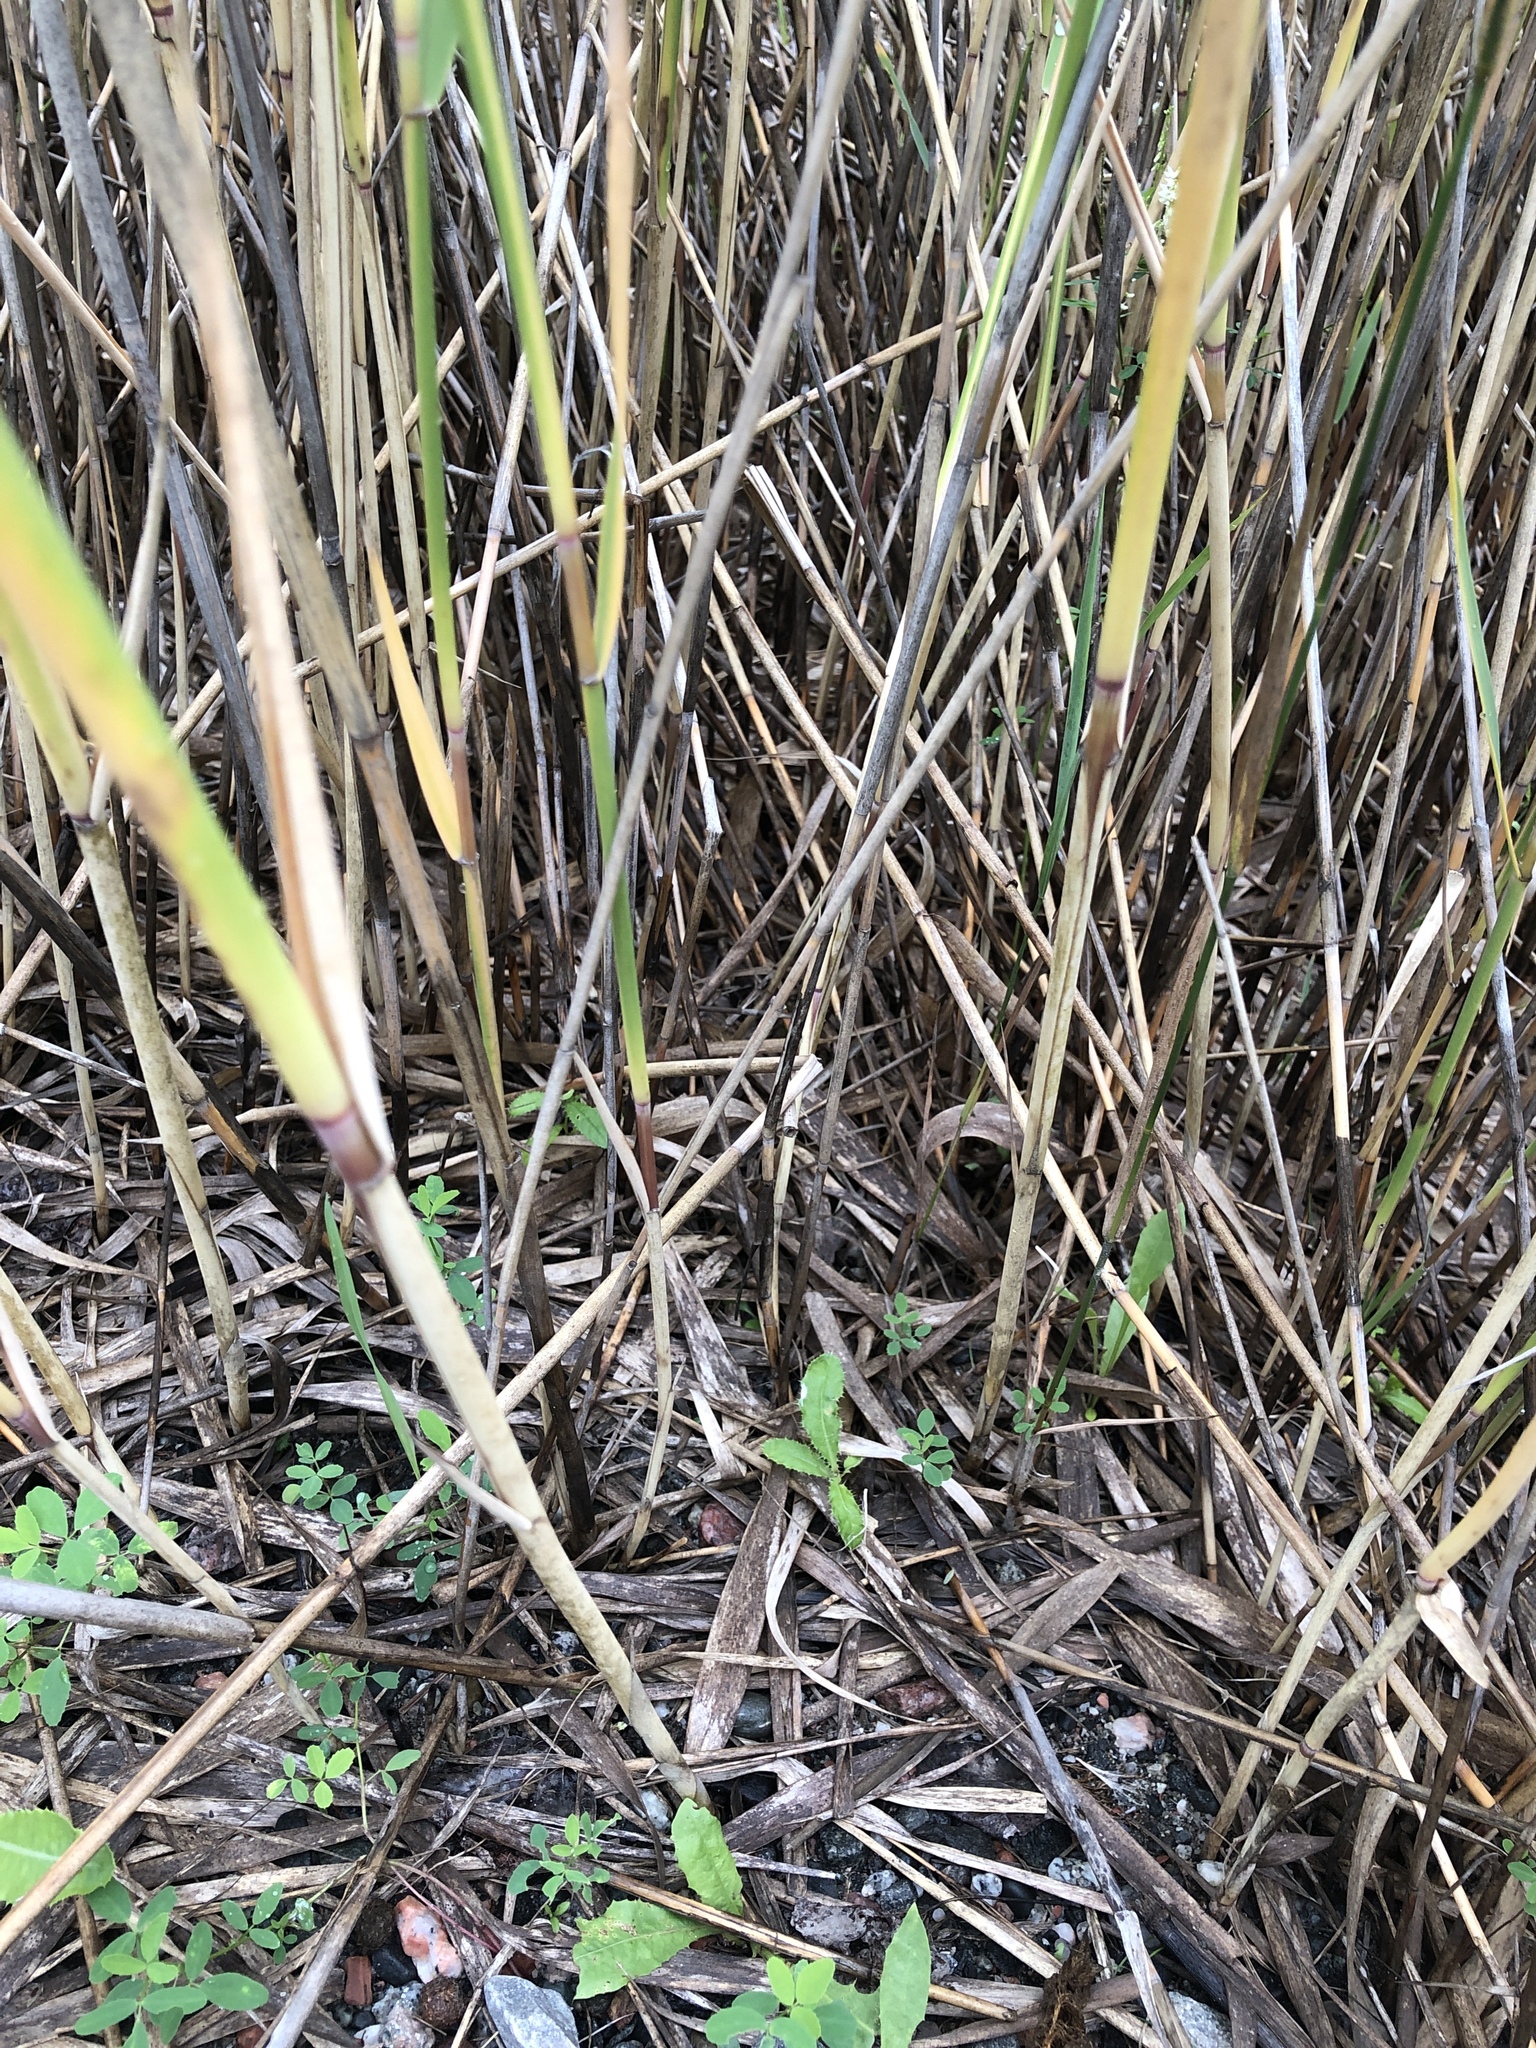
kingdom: Plantae
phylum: Tracheophyta
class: Liliopsida
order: Poales
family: Poaceae
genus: Phragmites
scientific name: Phragmites australis
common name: Common reed
